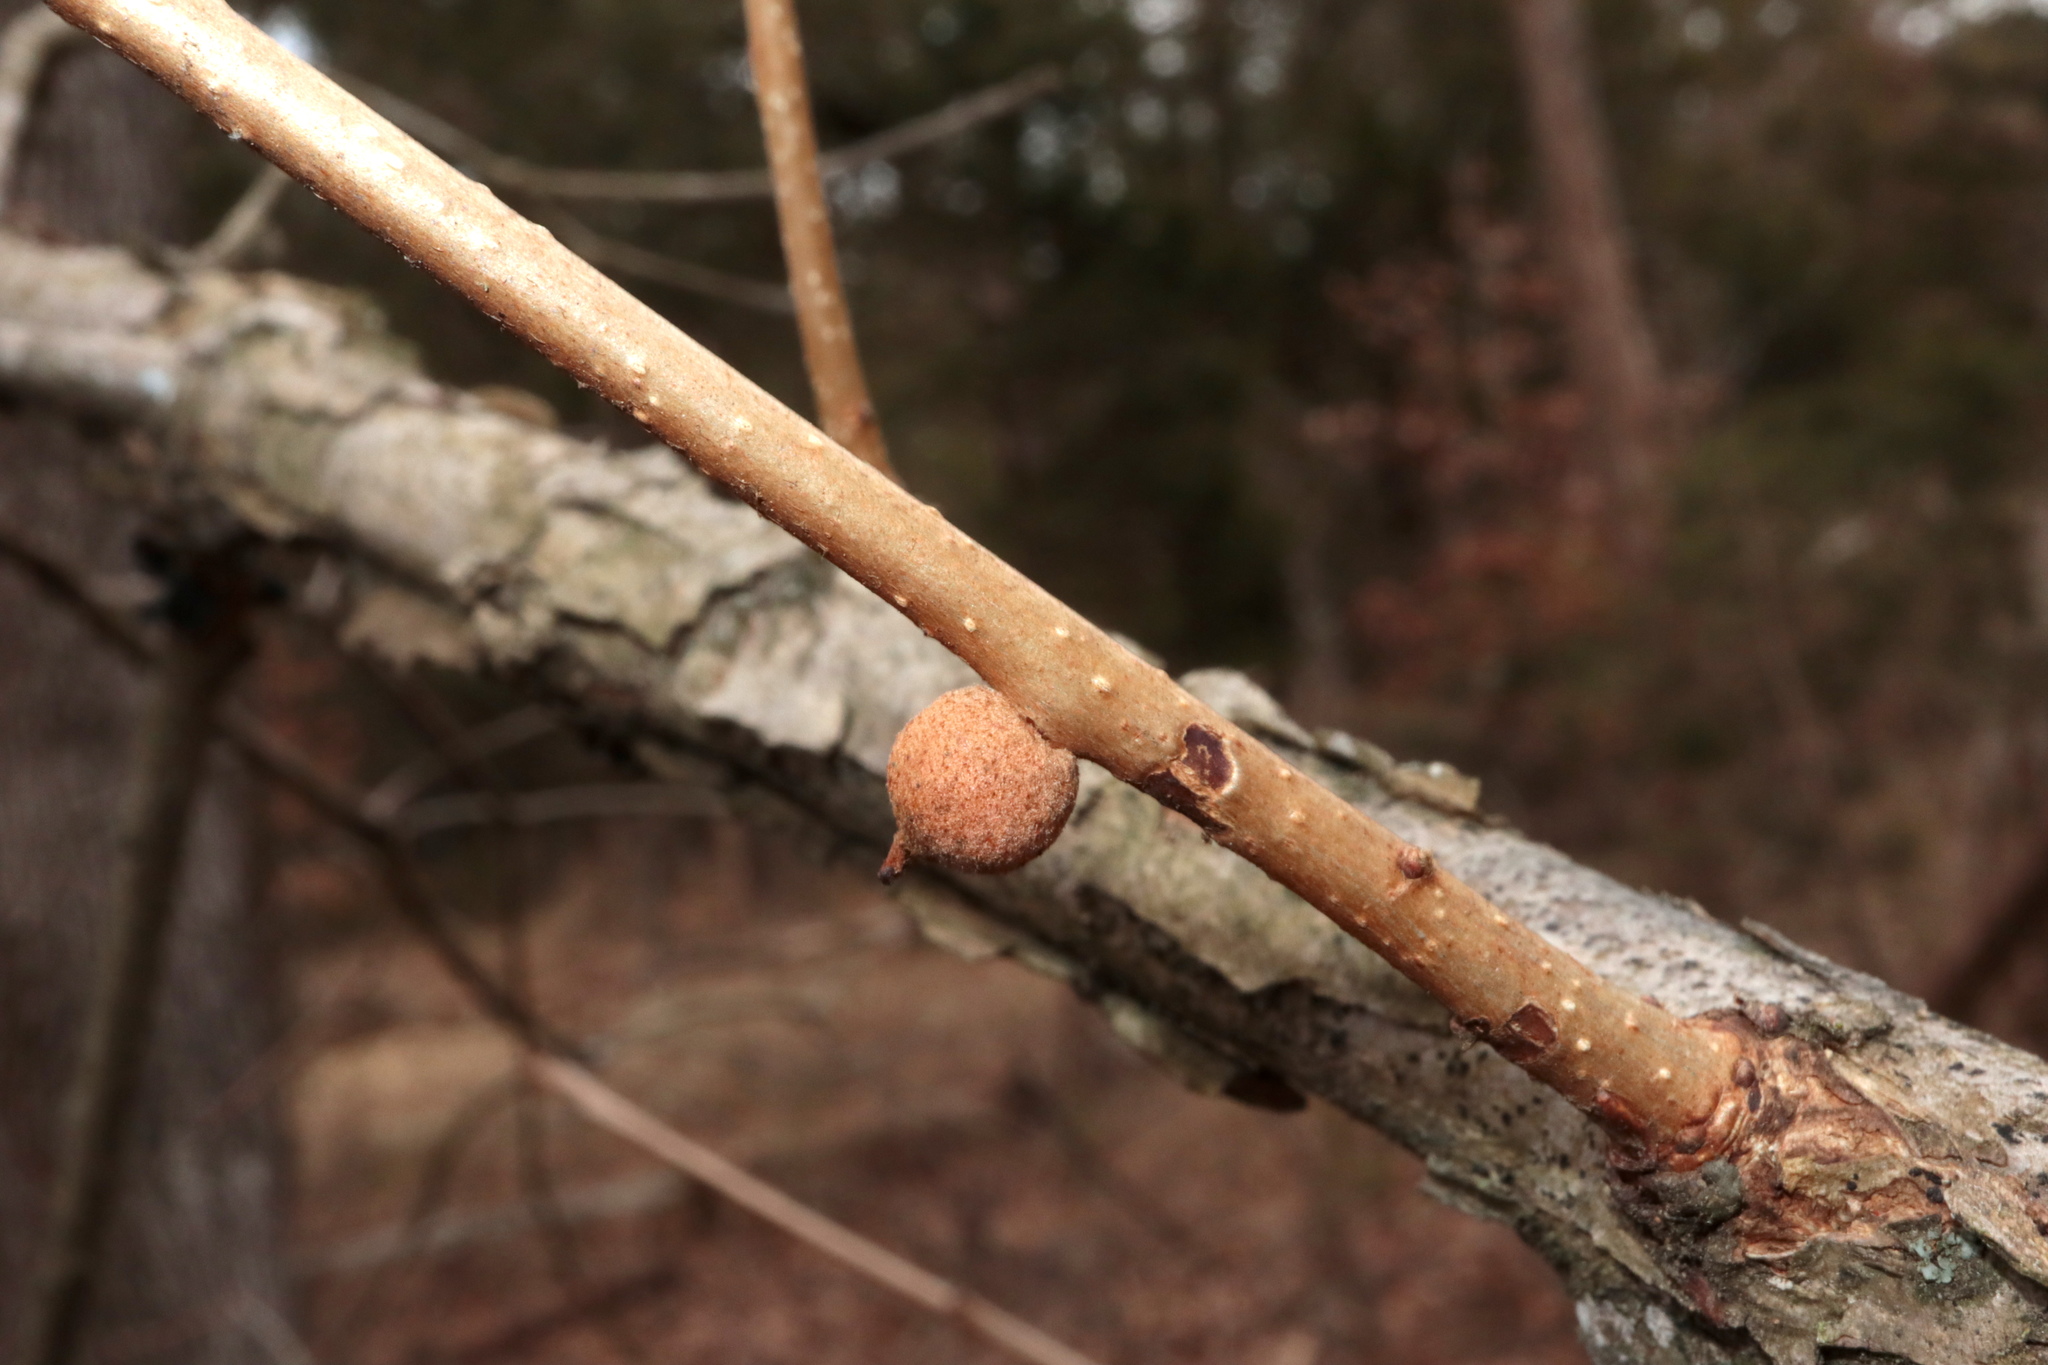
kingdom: Animalia
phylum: Arthropoda
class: Insecta
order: Hymenoptera
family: Cynipidae
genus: Disholcaspis
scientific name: Disholcaspis
